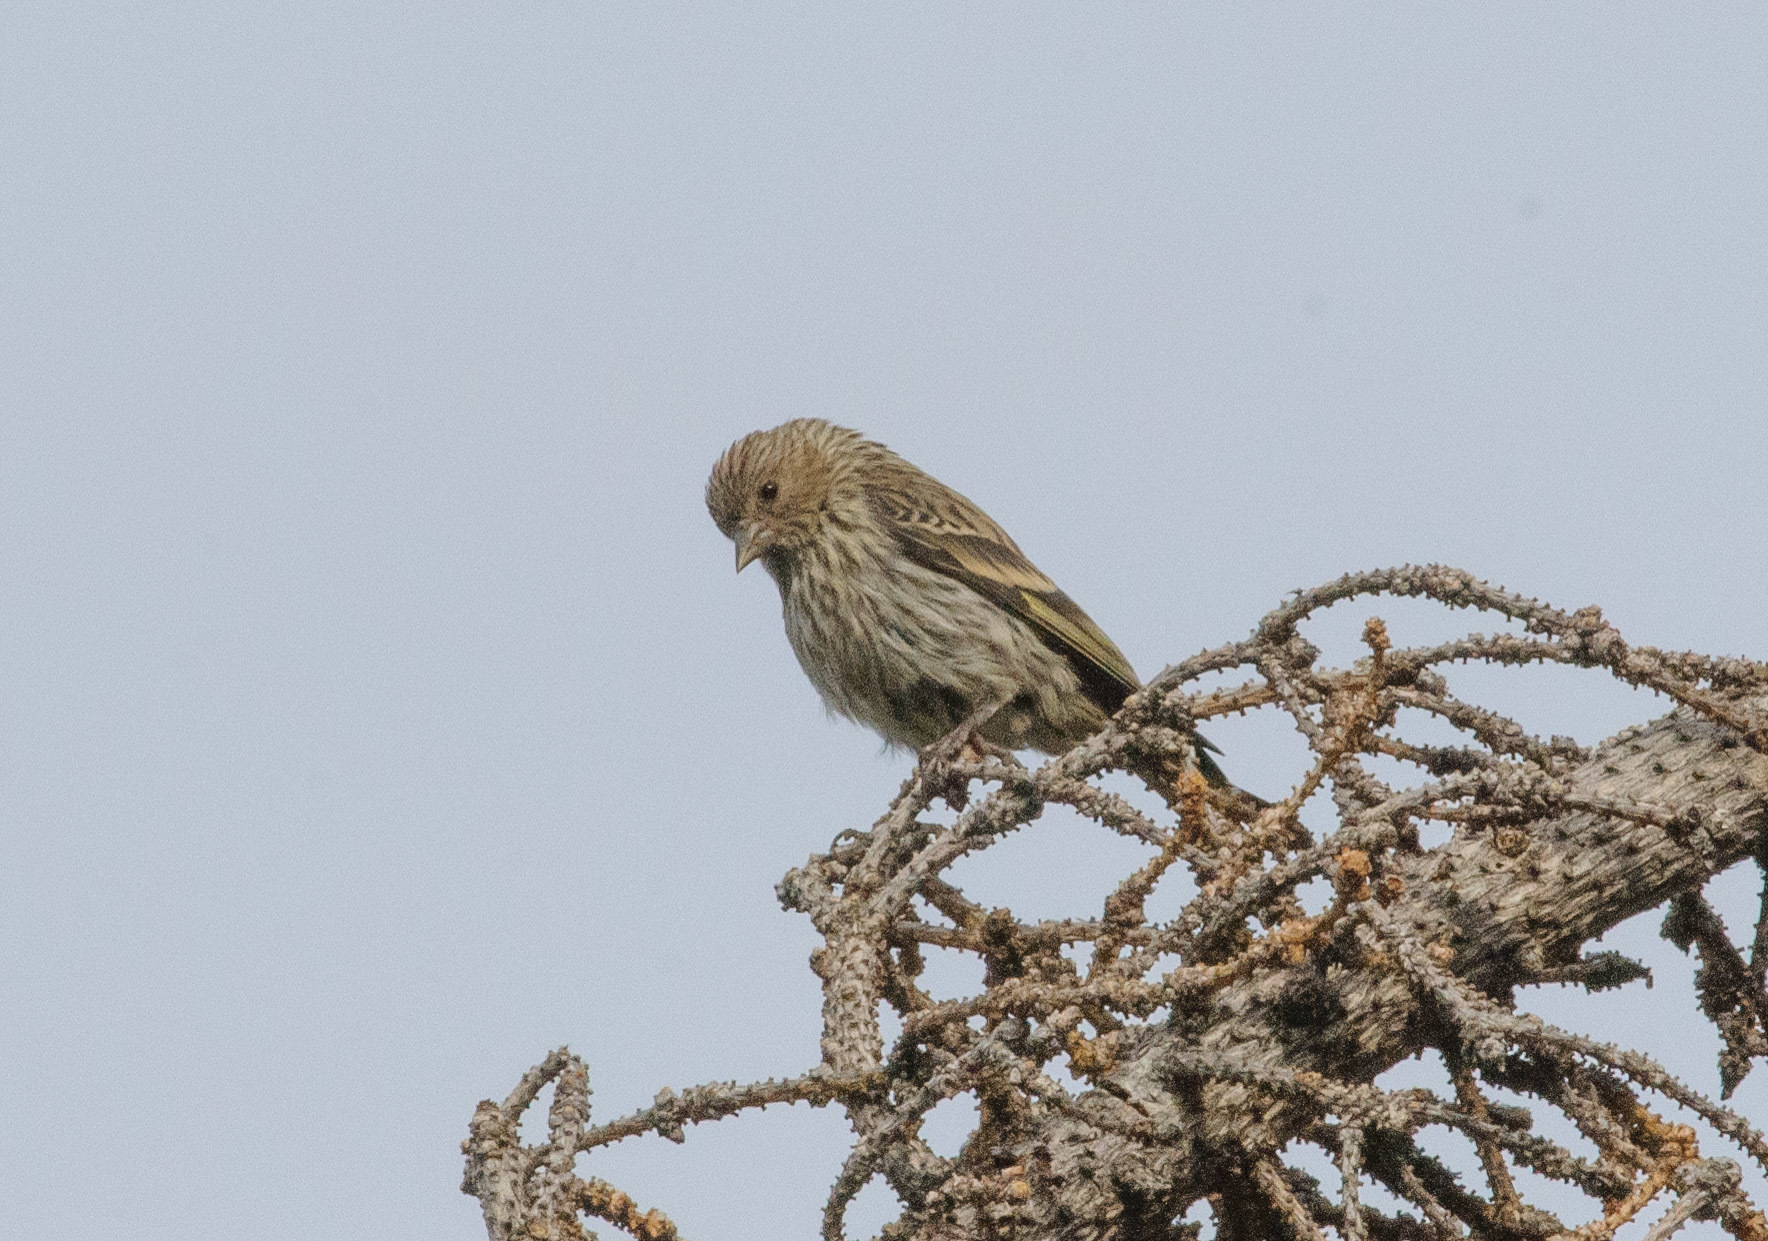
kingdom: Animalia
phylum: Chordata
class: Aves
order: Passeriformes
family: Fringillidae
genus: Spinus
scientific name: Spinus pinus
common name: Pine siskin
